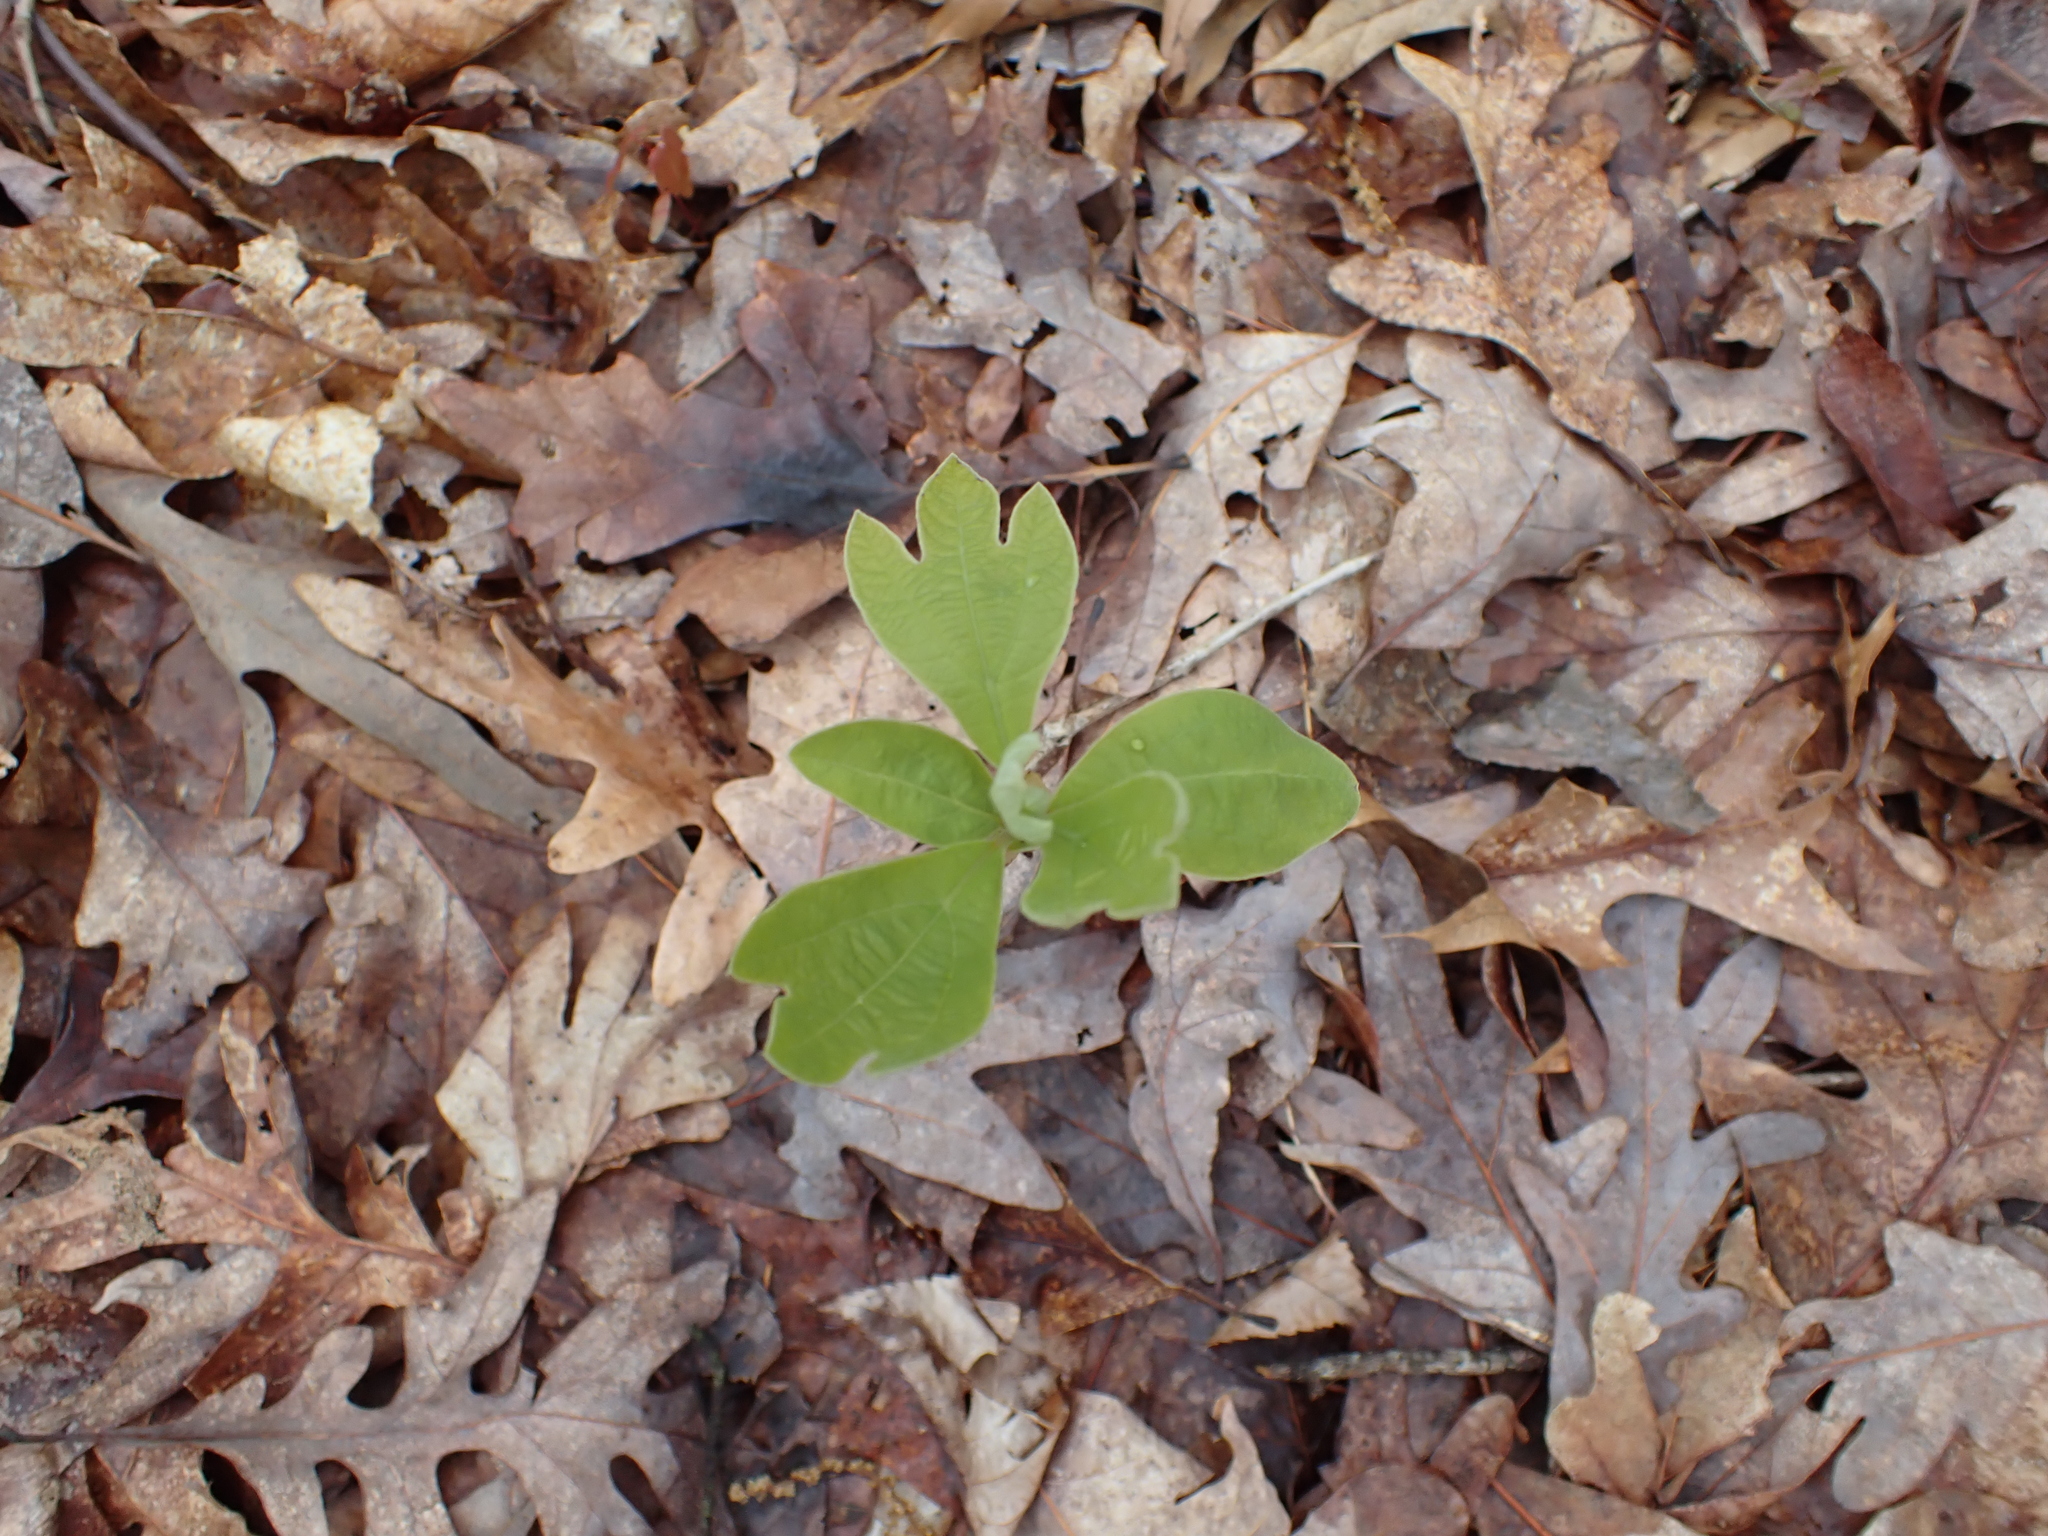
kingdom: Plantae
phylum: Tracheophyta
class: Magnoliopsida
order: Laurales
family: Lauraceae
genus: Sassafras
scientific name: Sassafras albidum
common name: Sassafras
